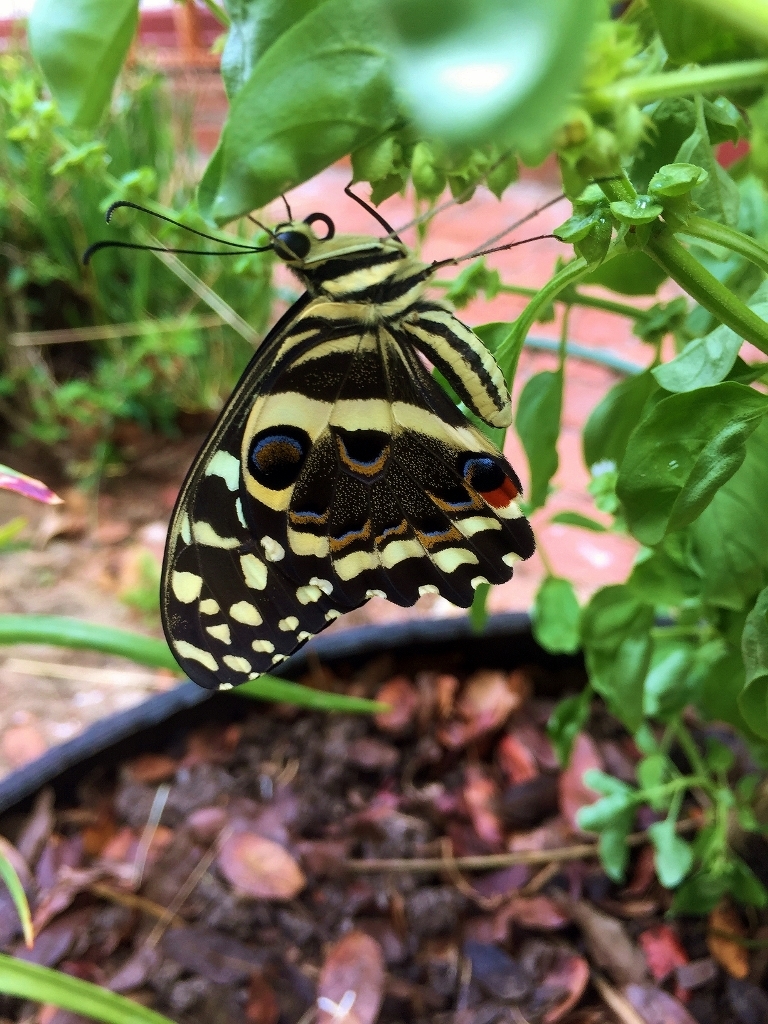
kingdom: Animalia
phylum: Arthropoda
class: Insecta
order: Lepidoptera
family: Papilionidae
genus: Papilio
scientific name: Papilio demodocus
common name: Christmas butterfly
